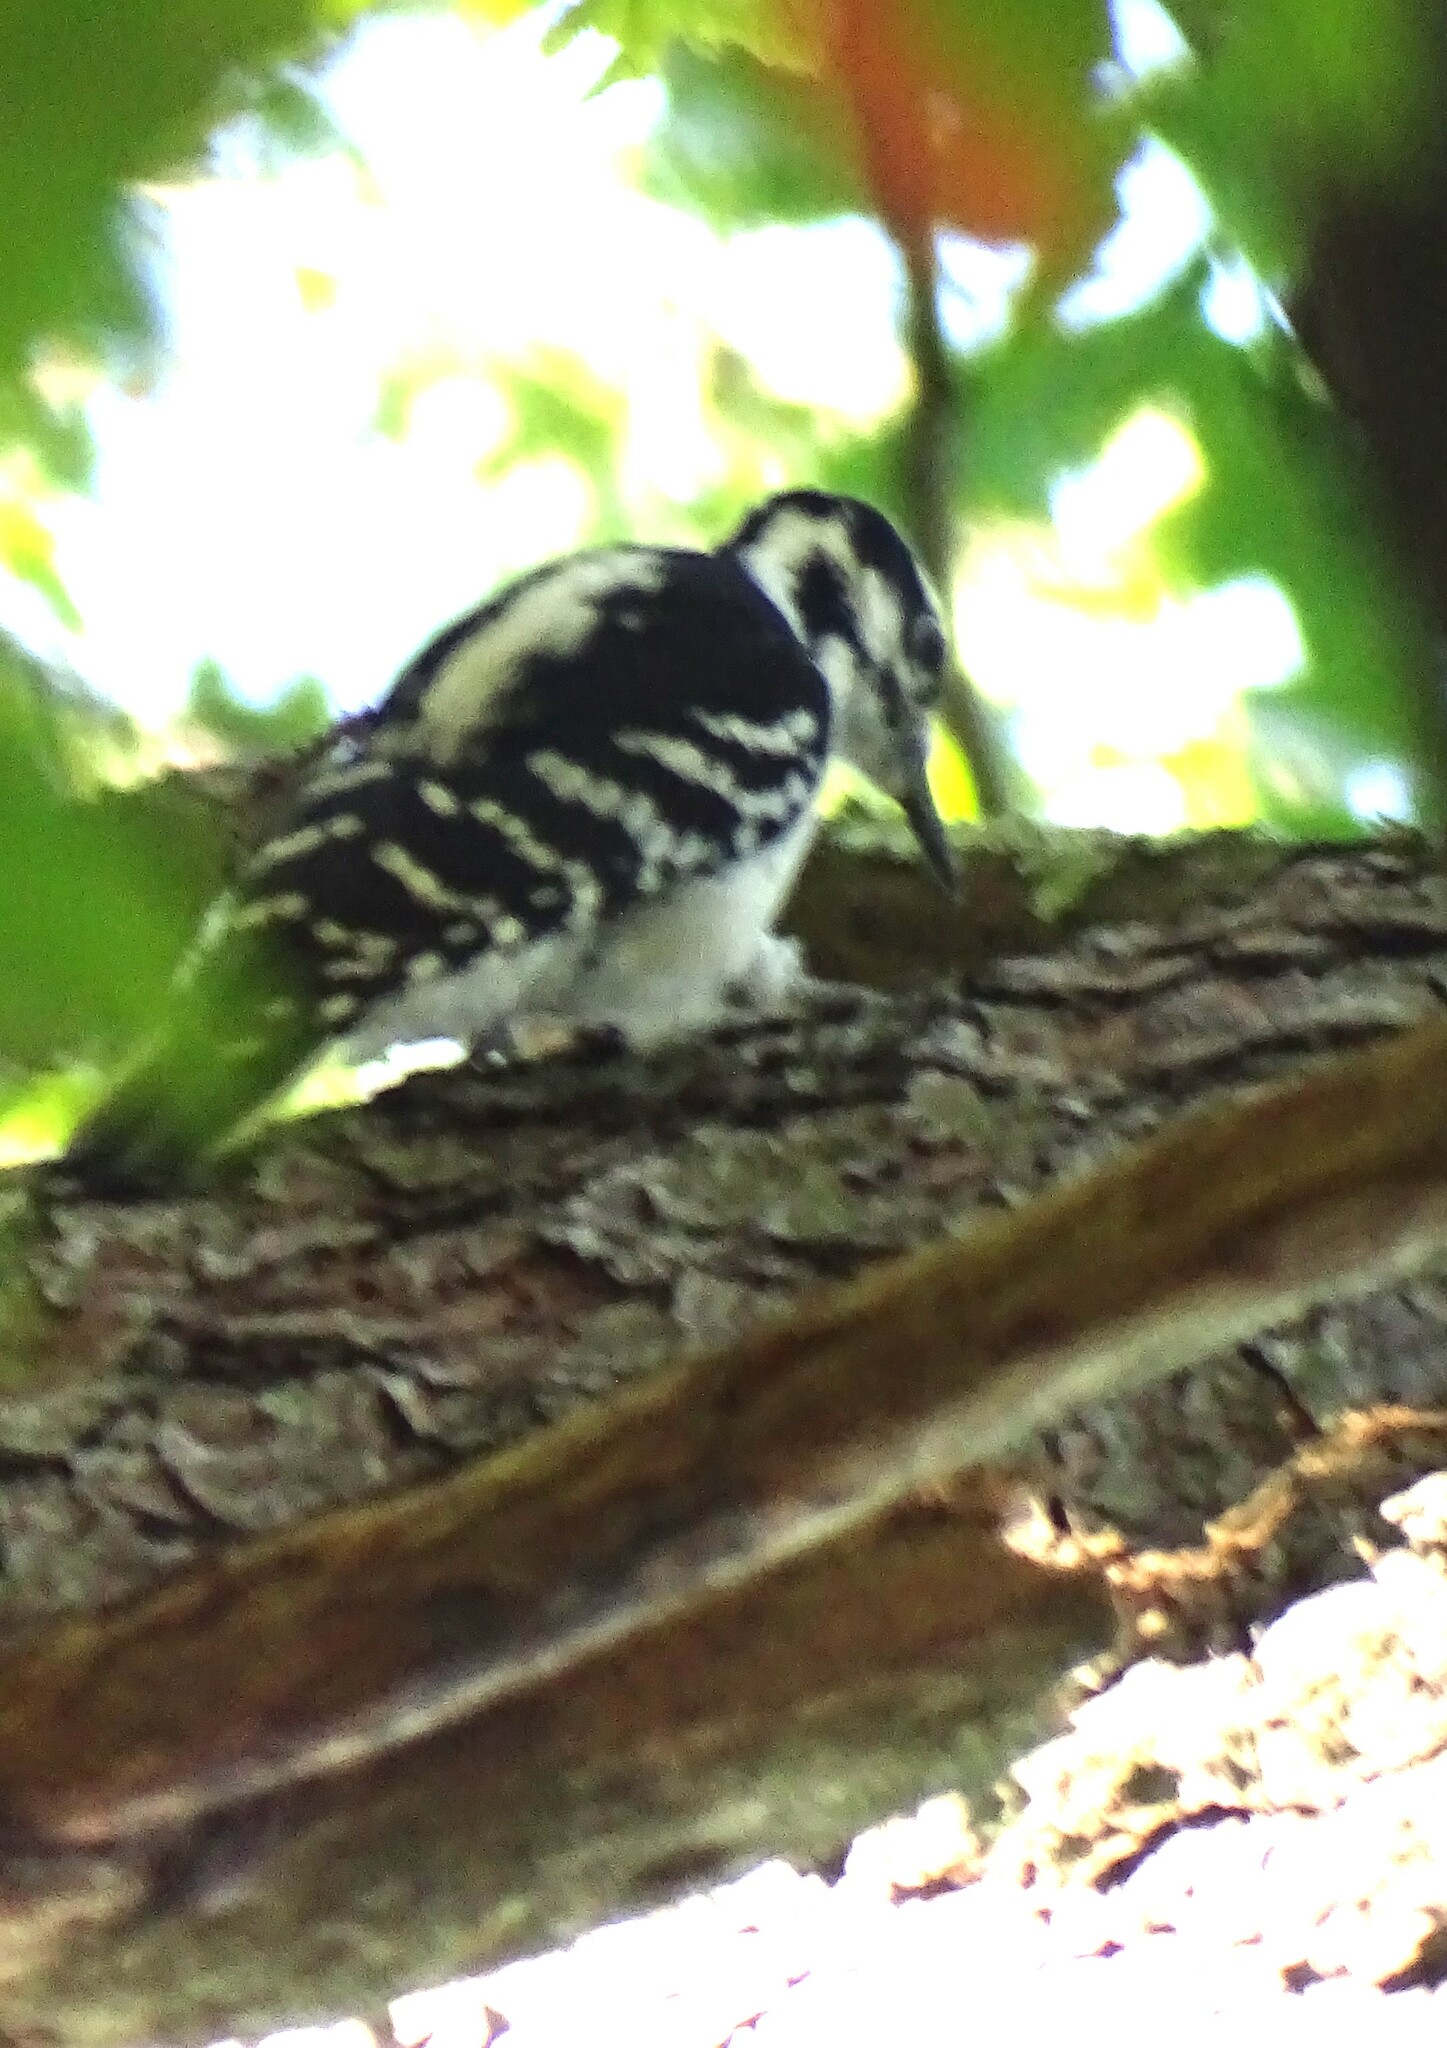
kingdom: Animalia
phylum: Chordata
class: Aves
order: Piciformes
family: Picidae
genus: Leuconotopicus
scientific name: Leuconotopicus villosus
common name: Hairy woodpecker
